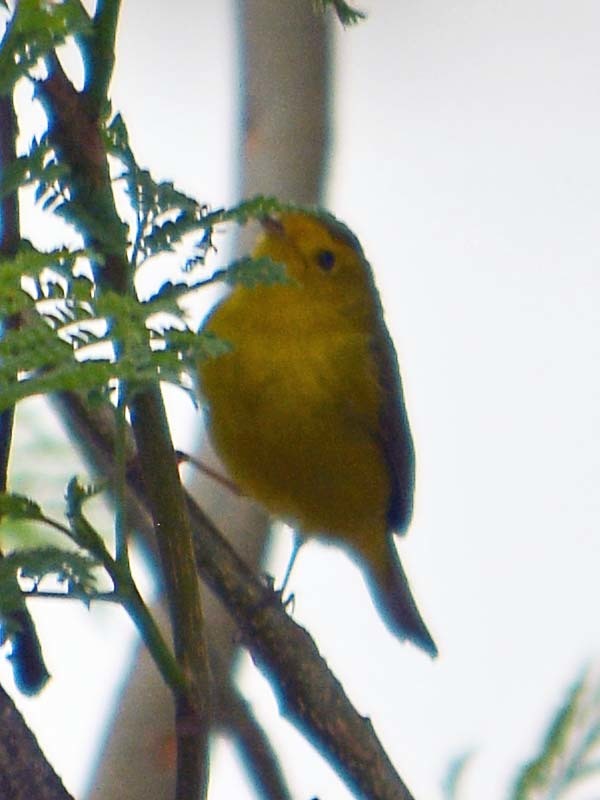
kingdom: Animalia
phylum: Chordata
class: Aves
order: Passeriformes
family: Parulidae
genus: Cardellina
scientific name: Cardellina pusilla
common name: Wilson's warbler
